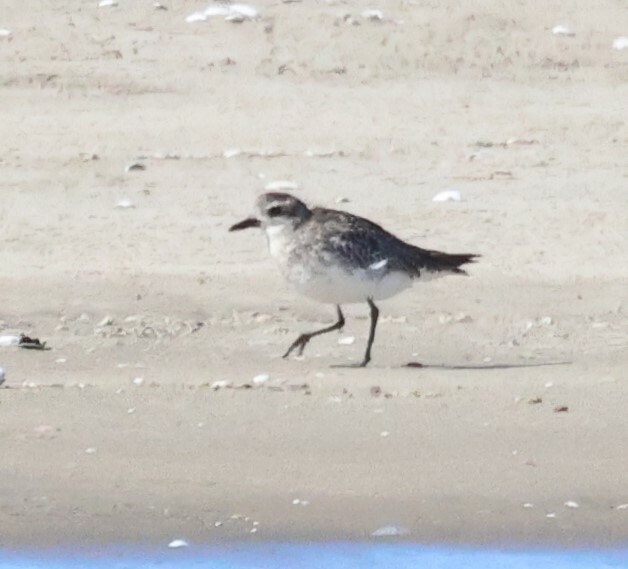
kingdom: Animalia
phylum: Chordata
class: Aves
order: Charadriiformes
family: Charadriidae
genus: Pluvialis
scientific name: Pluvialis squatarola
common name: Grey plover
